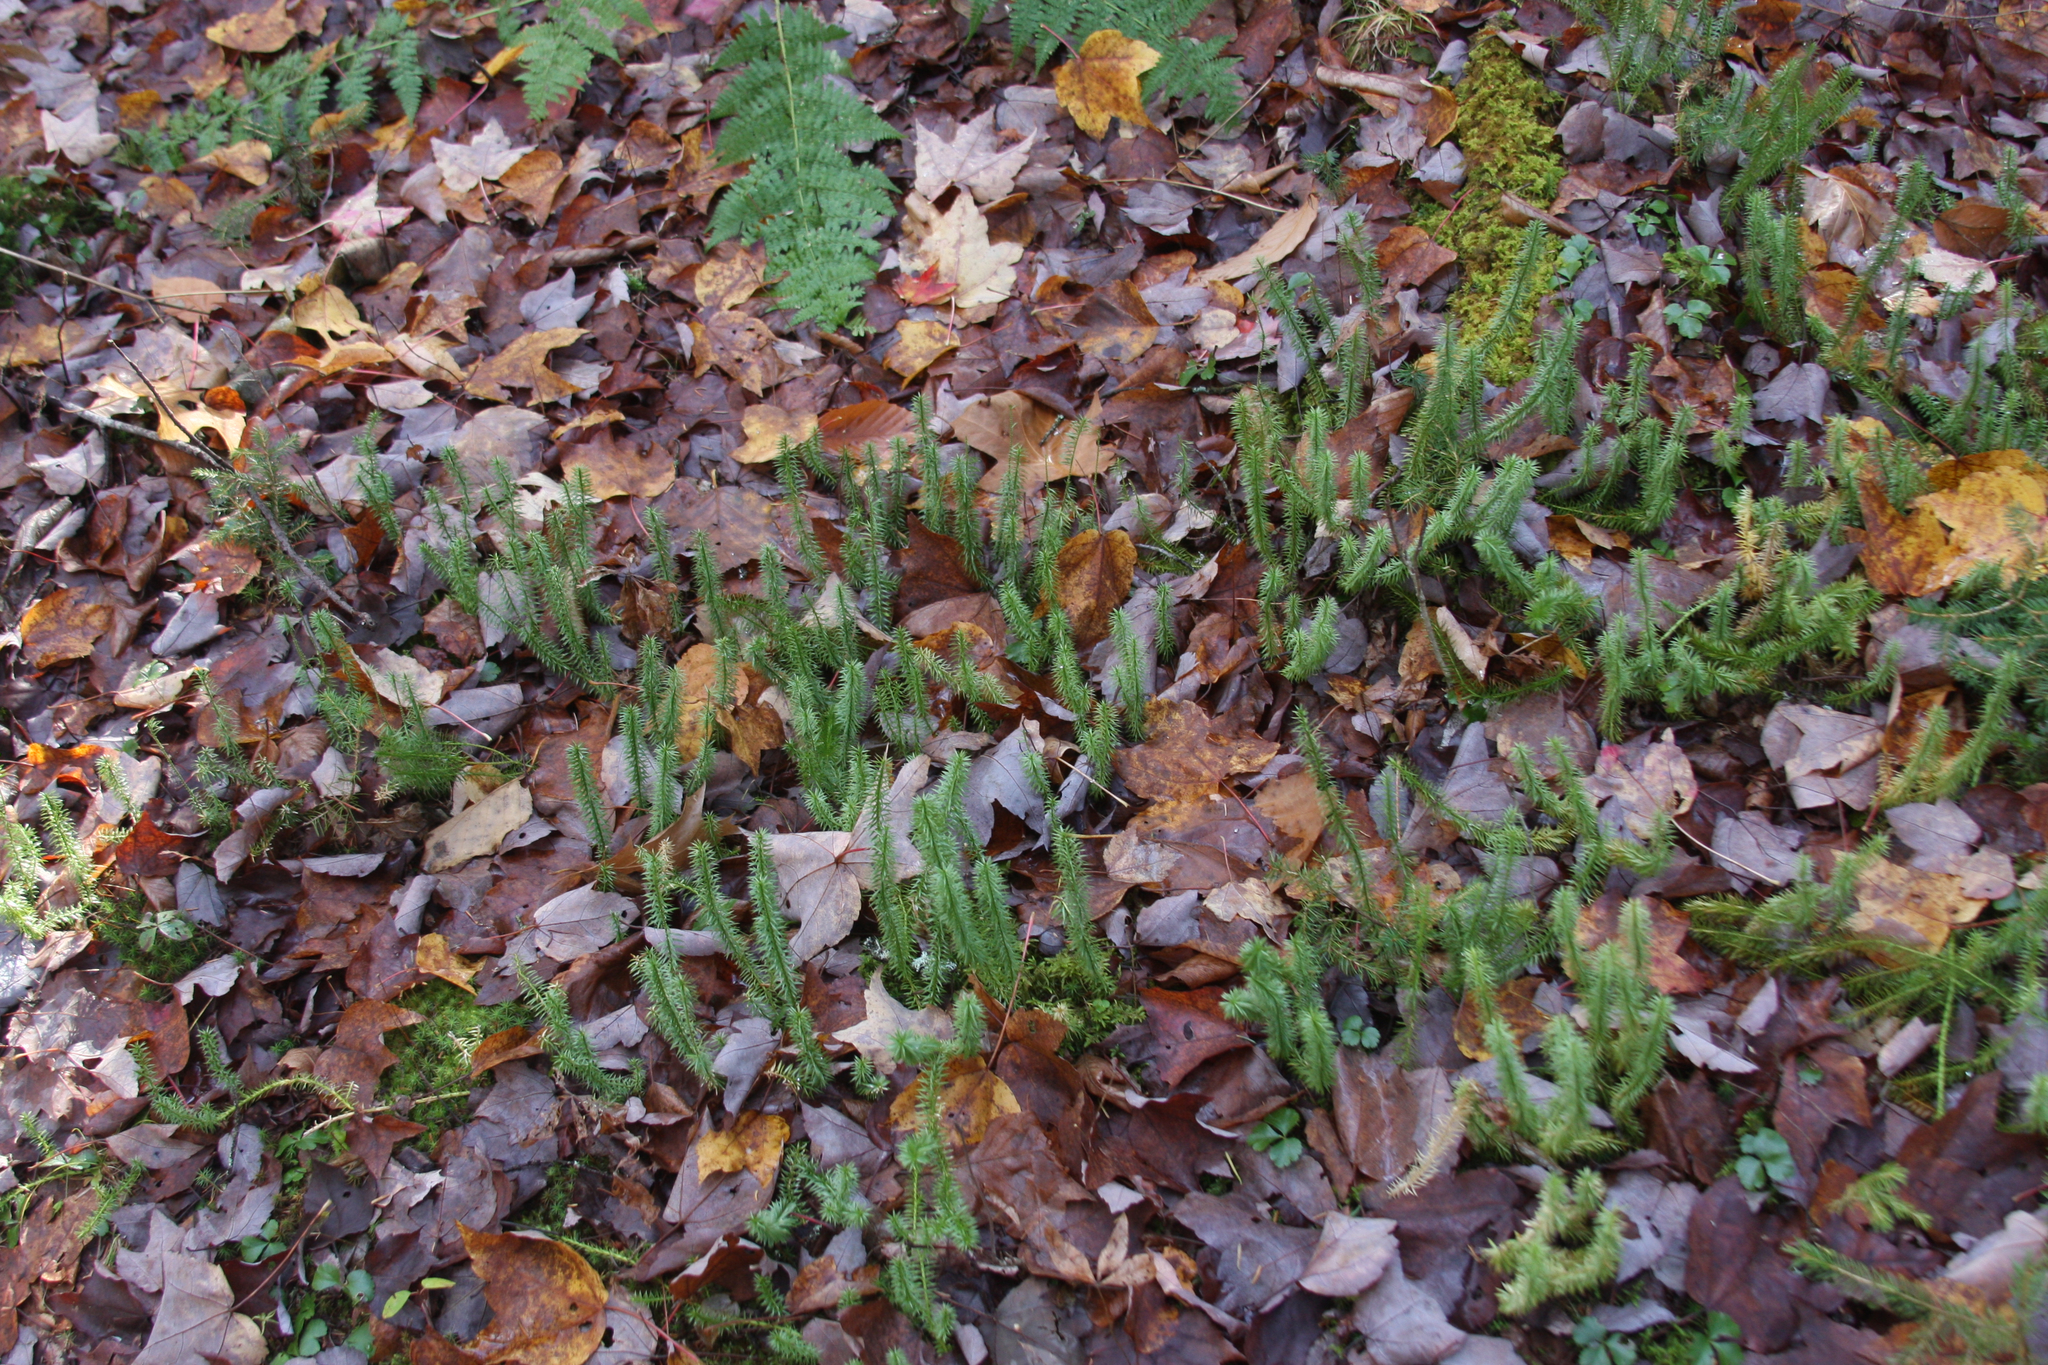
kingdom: Plantae
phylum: Tracheophyta
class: Lycopodiopsida
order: Lycopodiales
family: Lycopodiaceae
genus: Spinulum
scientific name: Spinulum annotinum
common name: Interrupted club-moss
